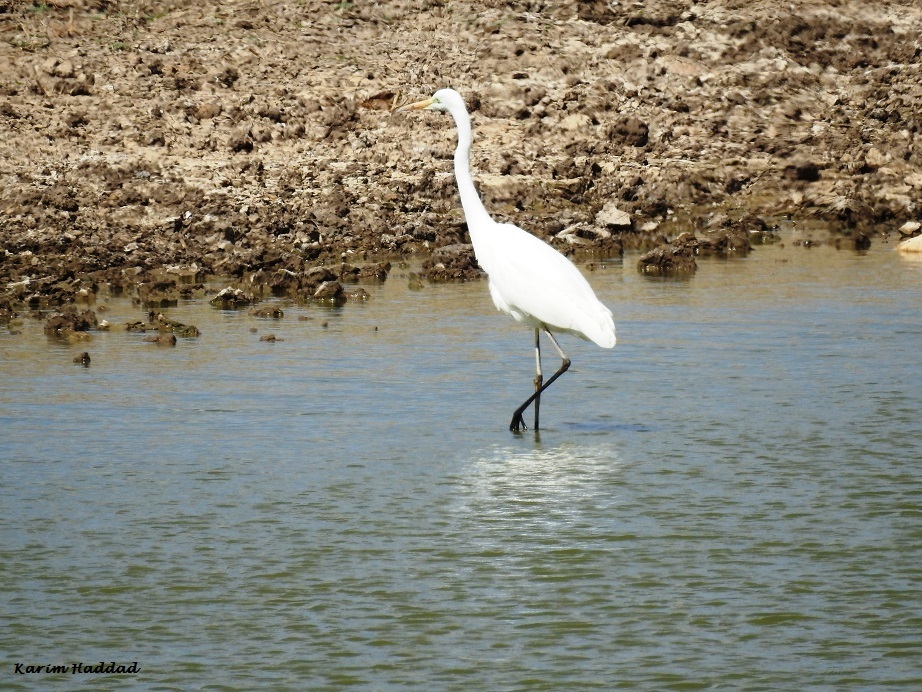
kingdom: Animalia
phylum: Chordata
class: Aves
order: Pelecaniformes
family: Ardeidae
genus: Ardea
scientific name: Ardea alba
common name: Great egret
